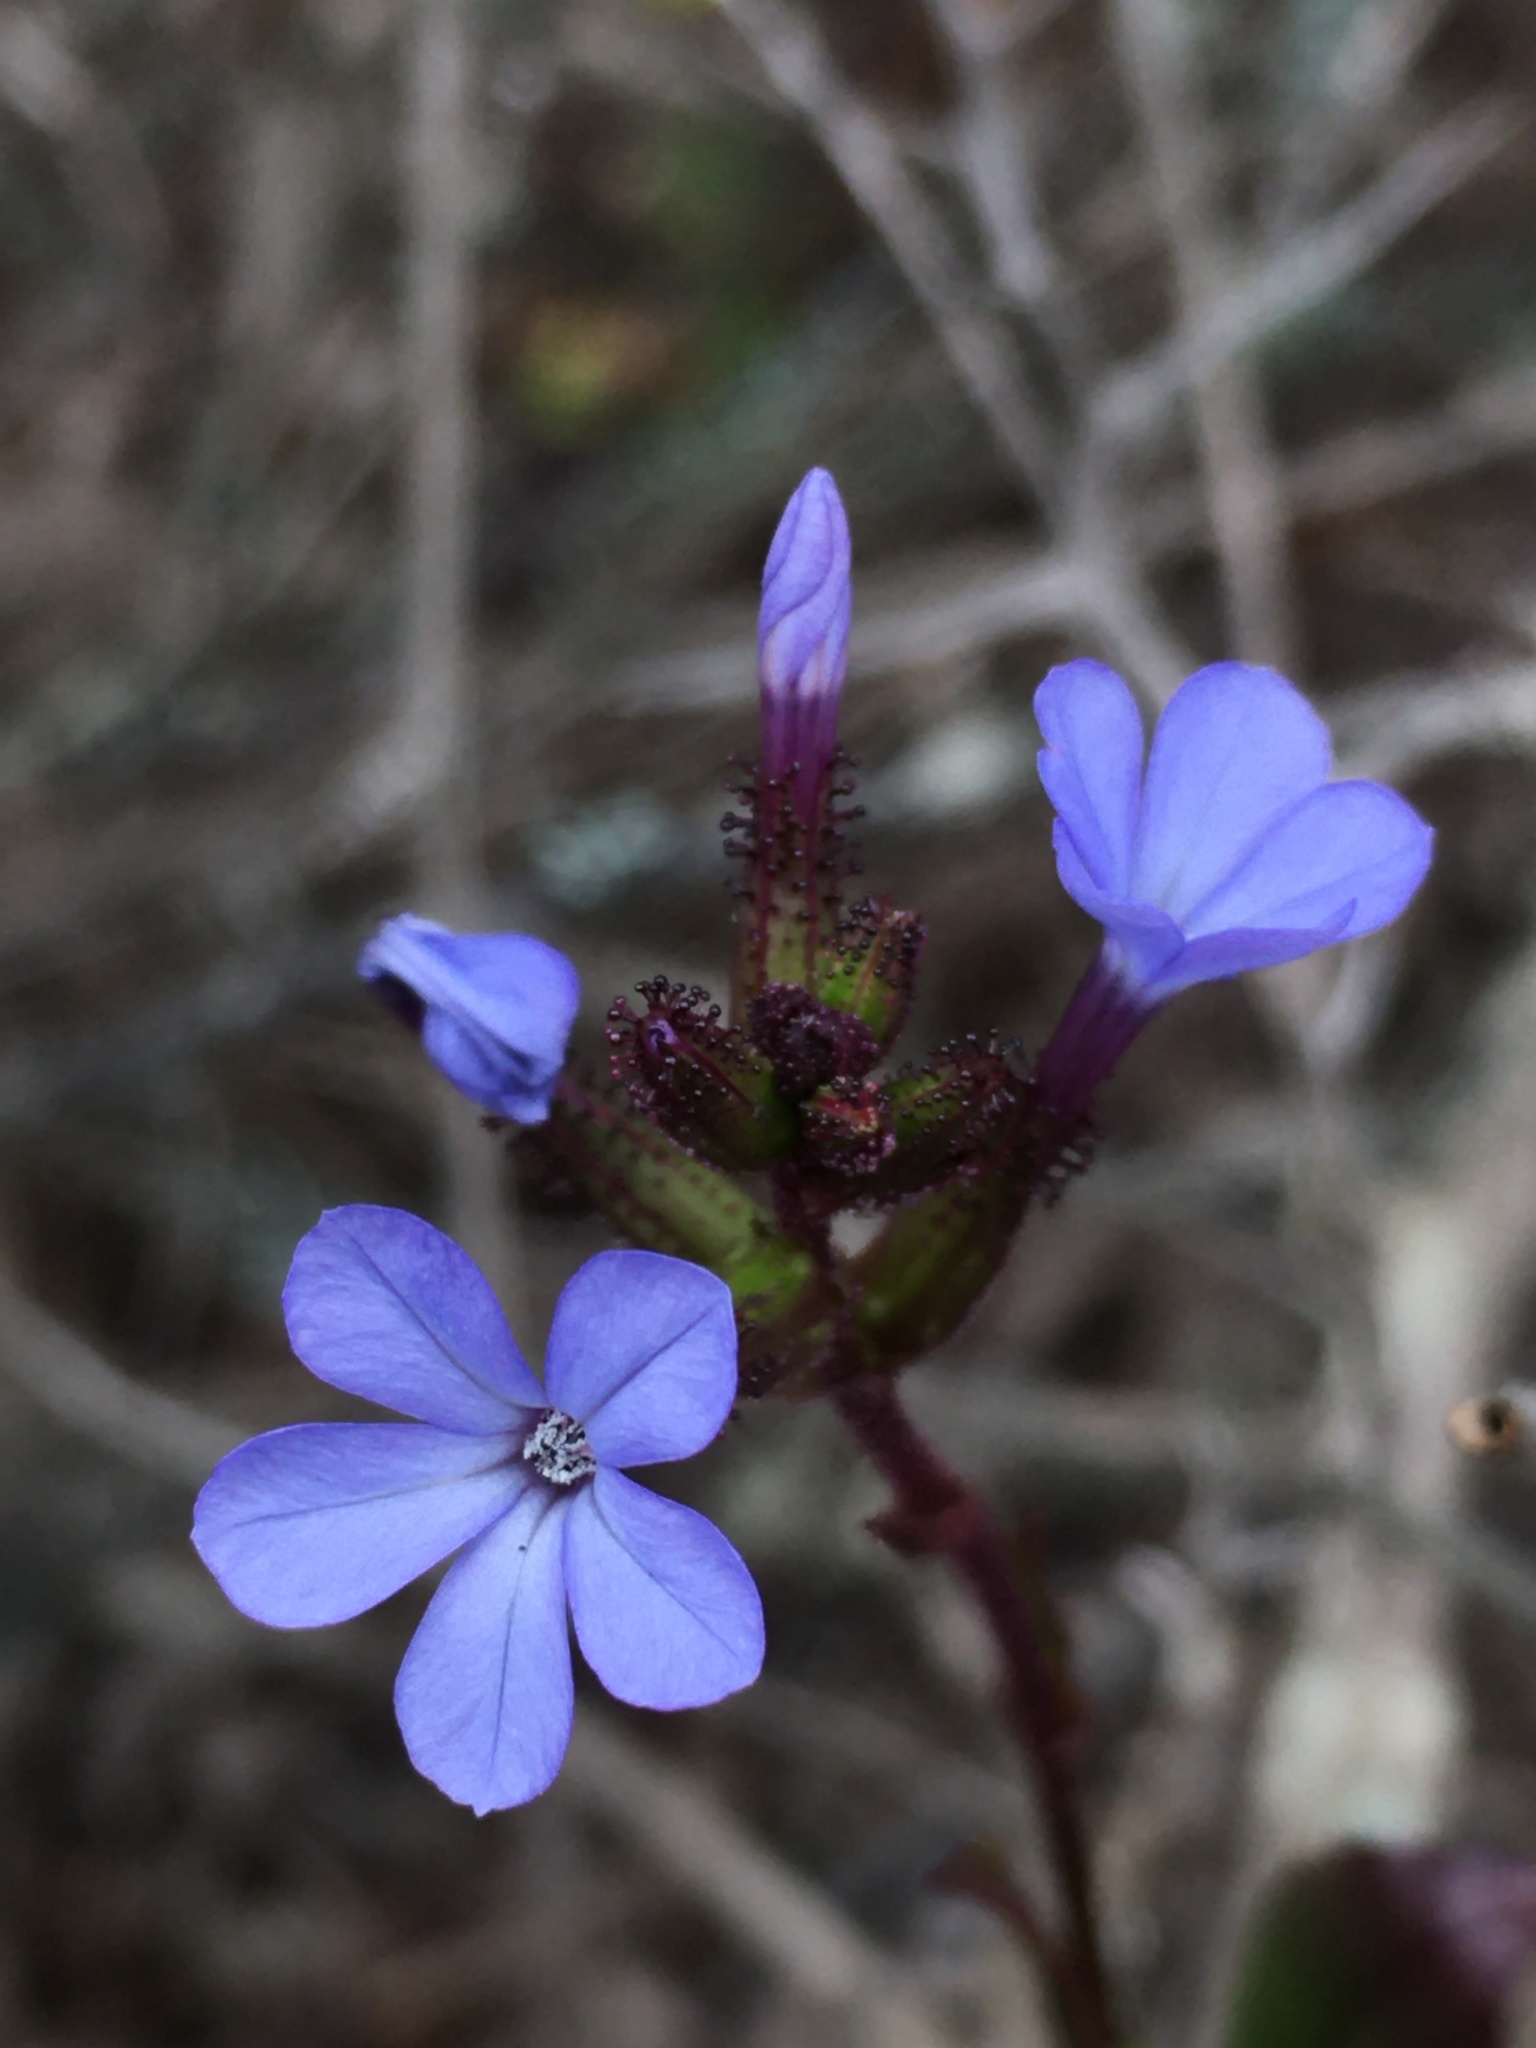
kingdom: Plantae
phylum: Tracheophyta
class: Magnoliopsida
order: Caryophyllales
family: Plumbaginaceae
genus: Plumbago
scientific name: Plumbago caerulea
